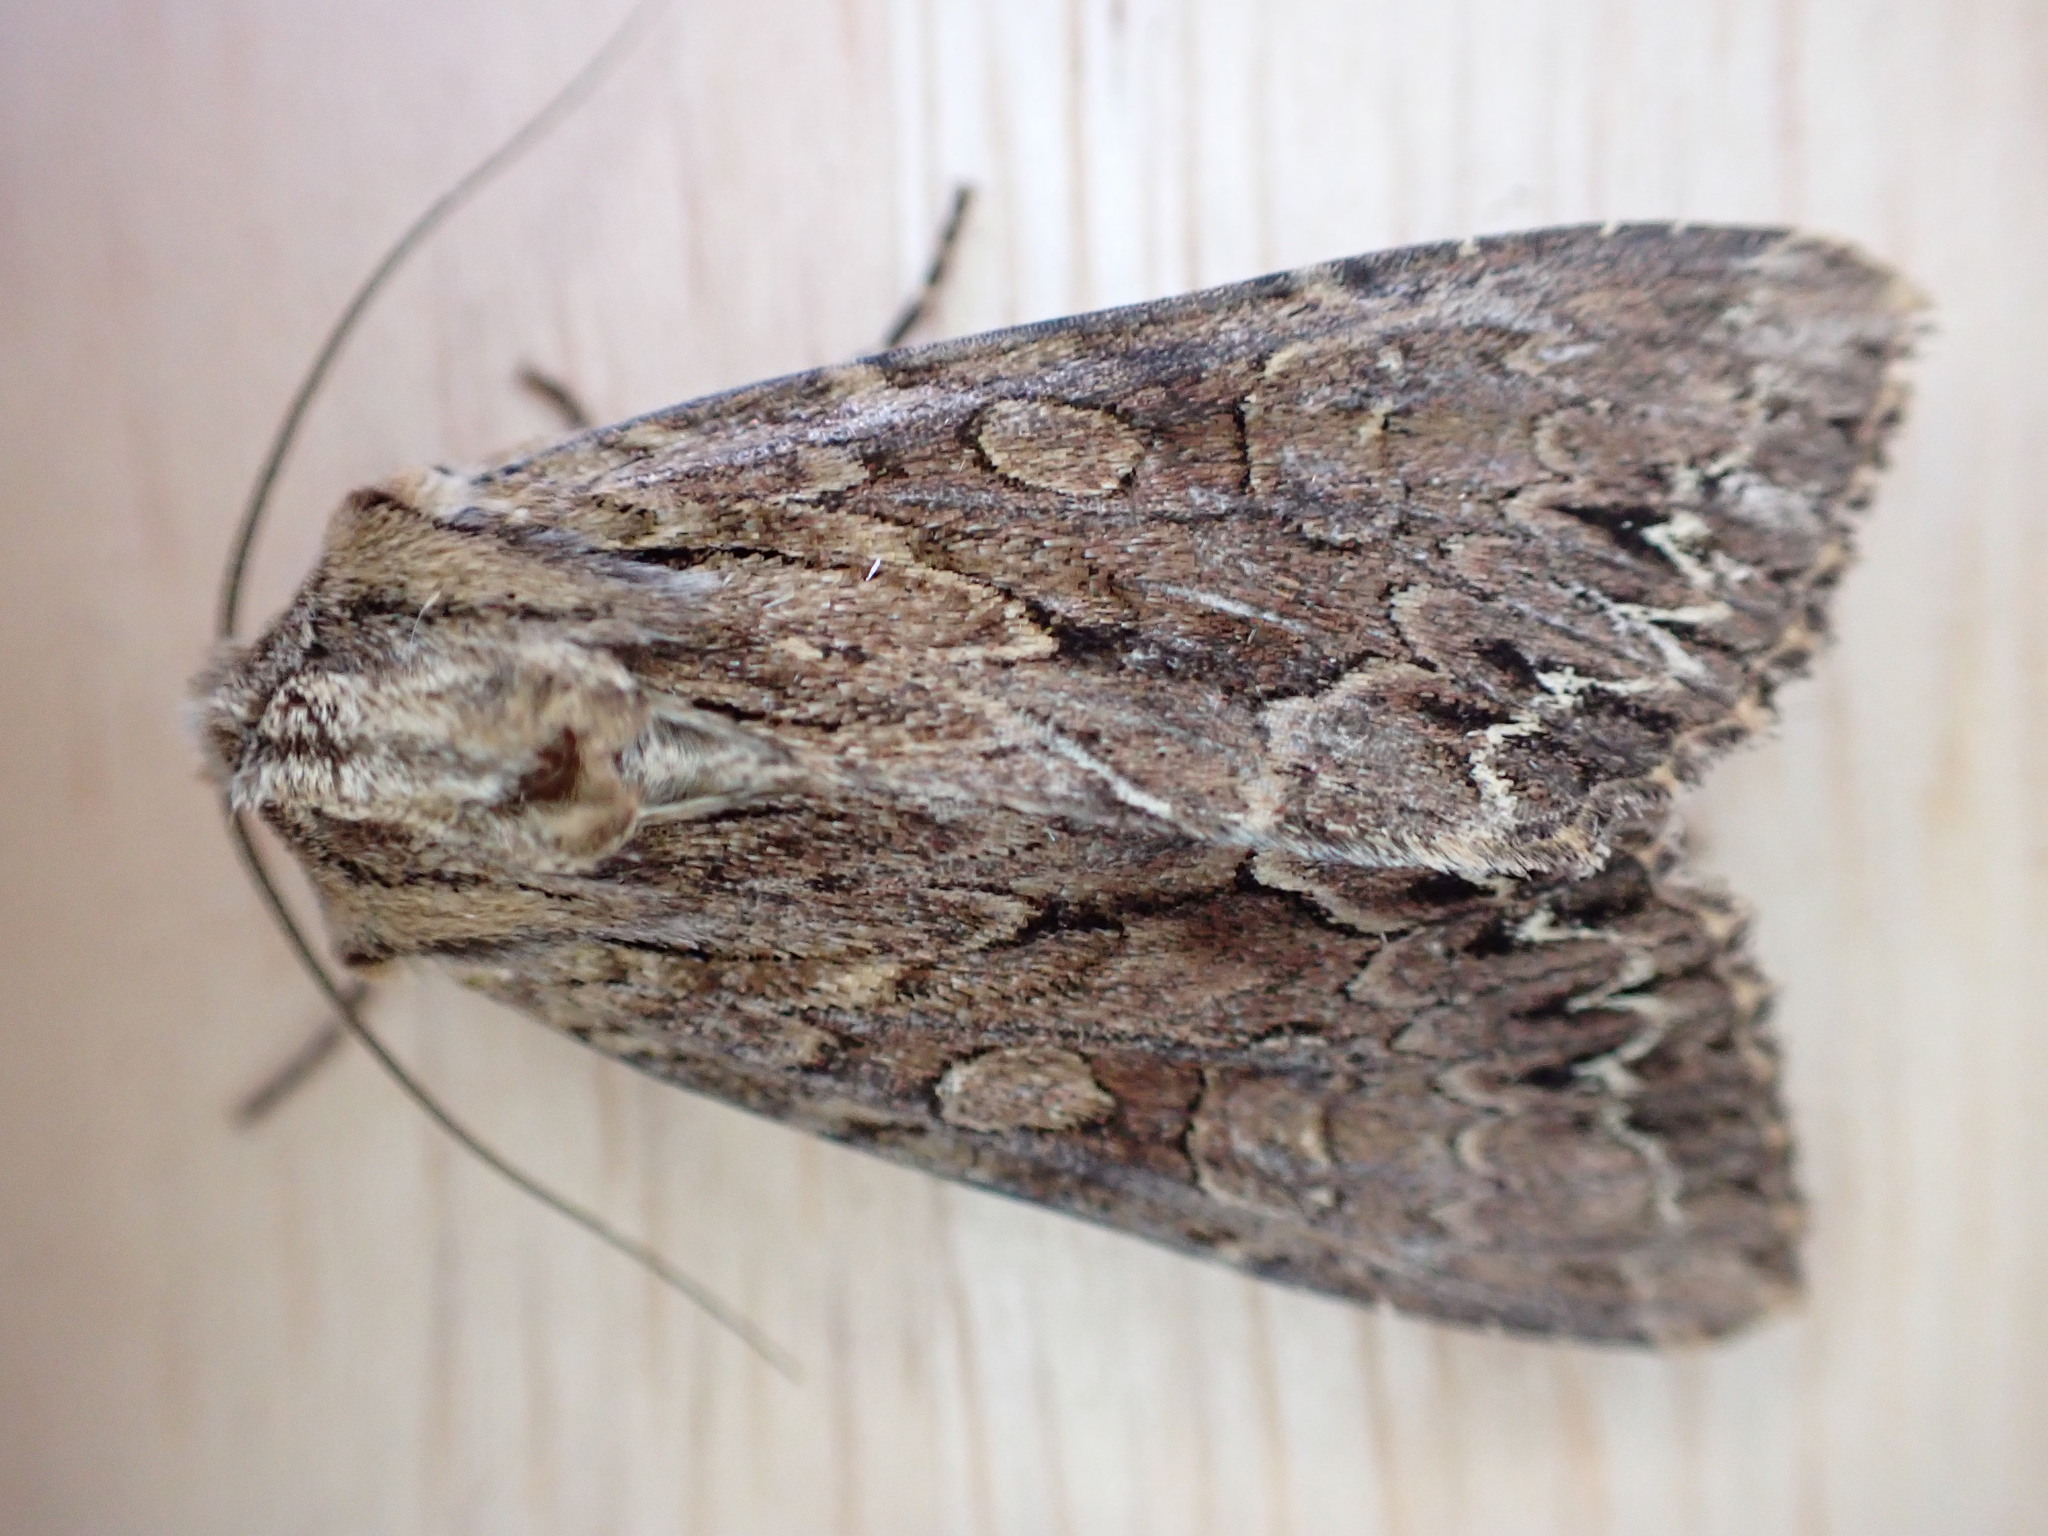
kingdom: Animalia
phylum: Arthropoda
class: Insecta
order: Lepidoptera
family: Noctuidae
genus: Apamea
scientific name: Apamea monoglypha
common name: Dark arches
